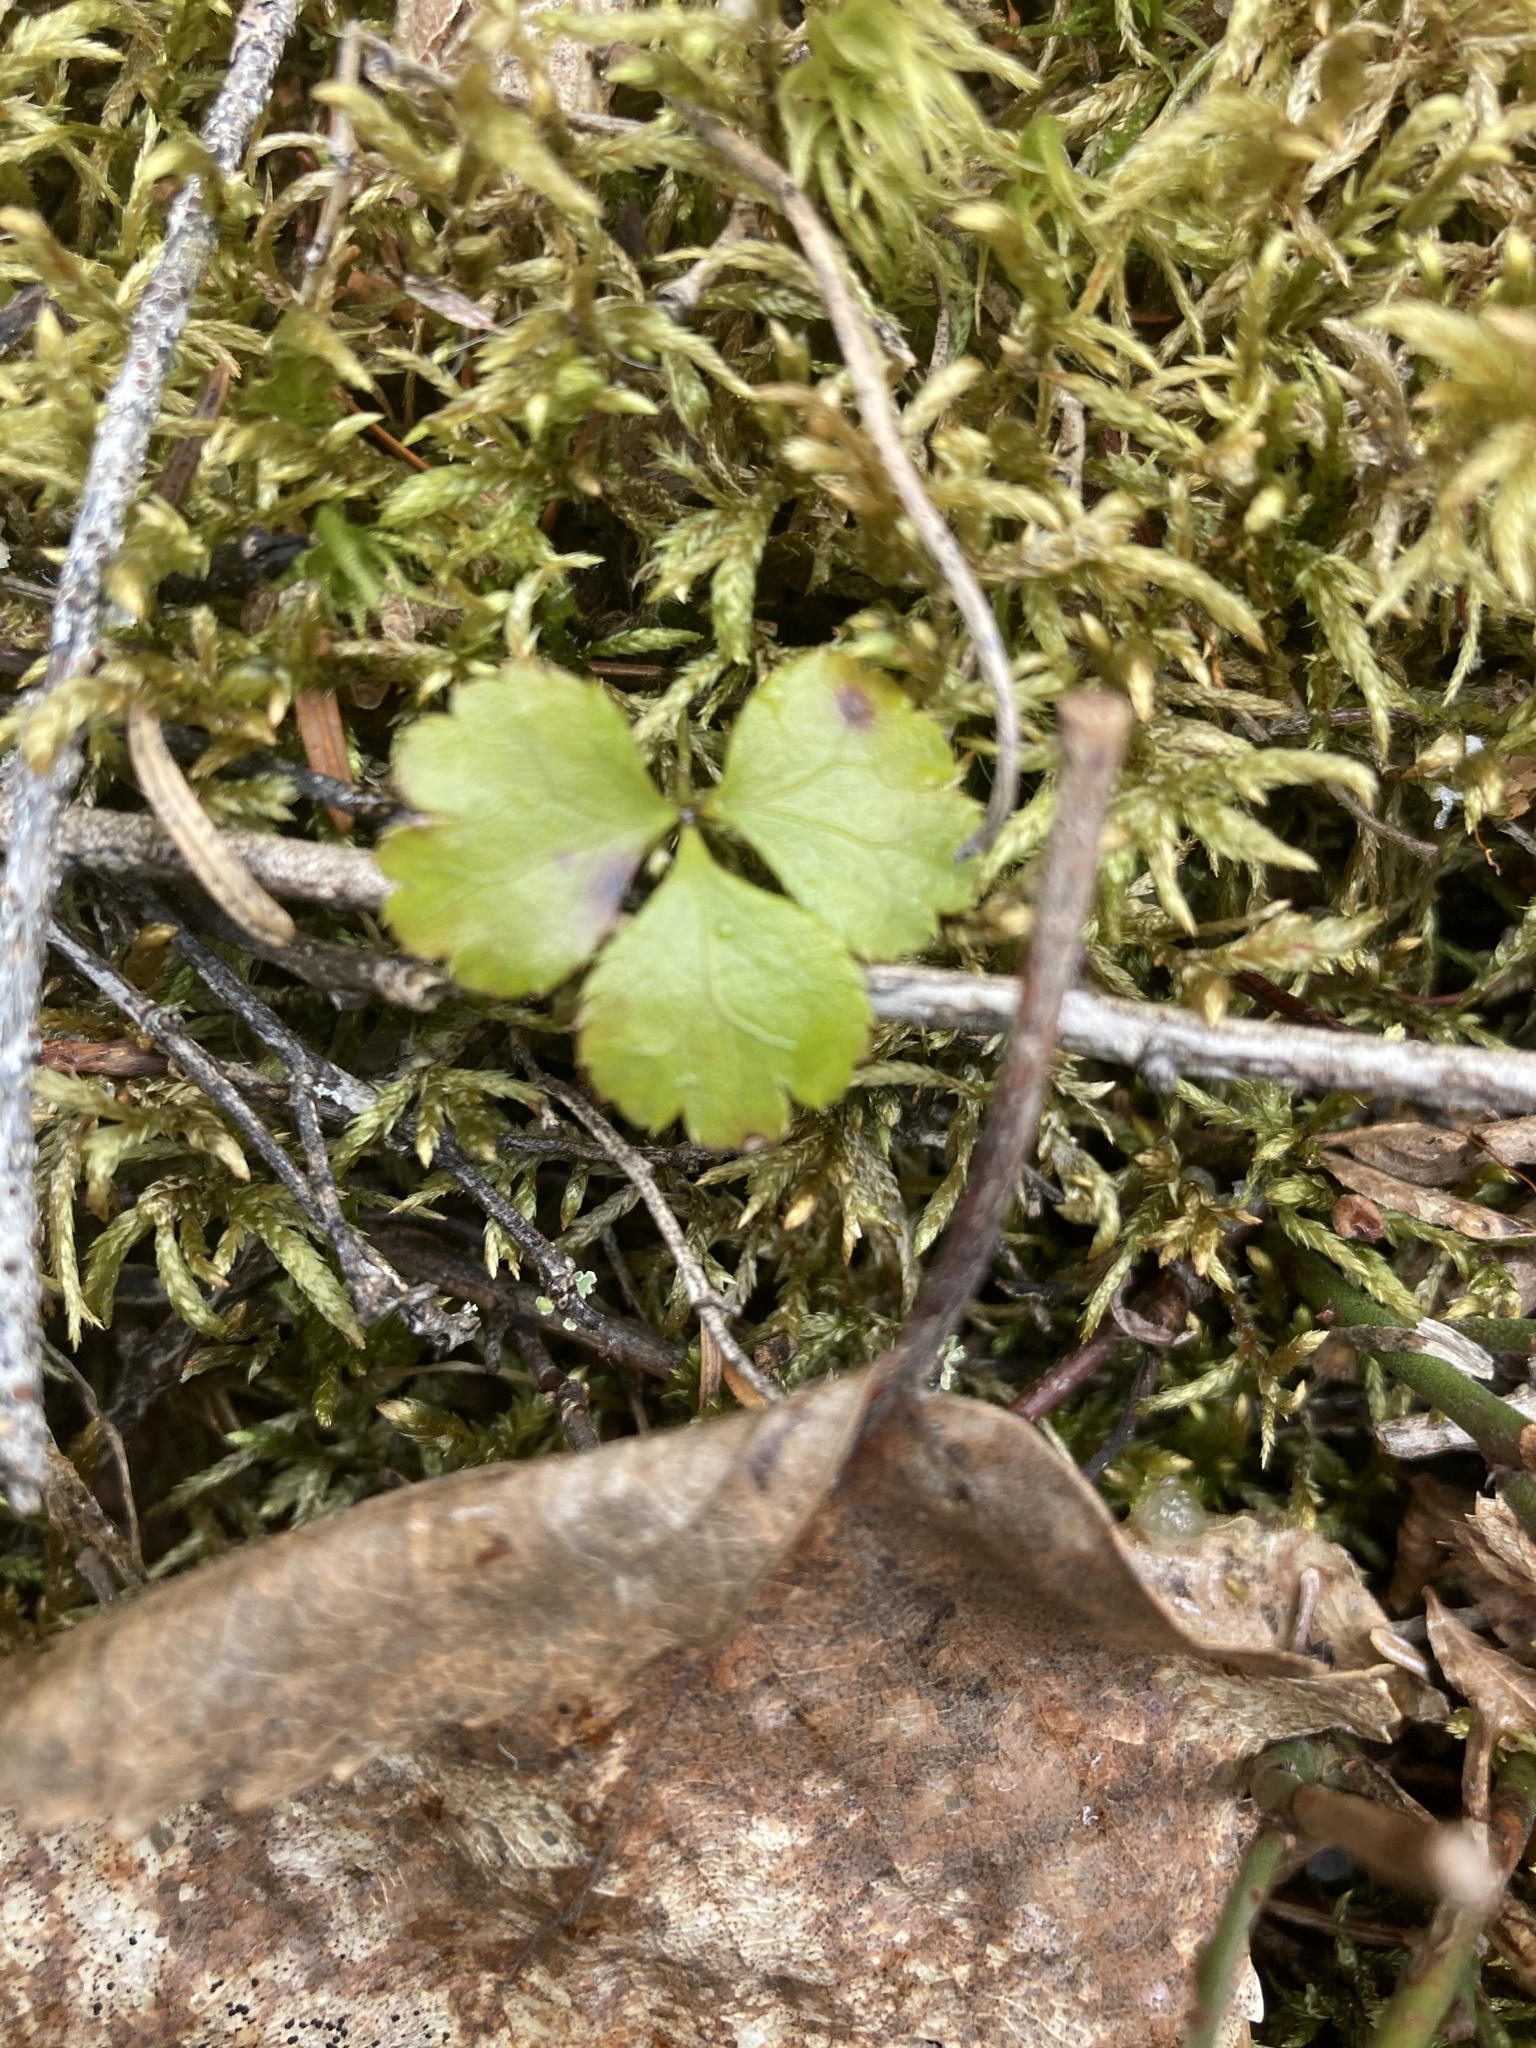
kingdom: Plantae
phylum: Tracheophyta
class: Magnoliopsida
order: Ranunculales
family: Ranunculaceae
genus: Coptis
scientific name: Coptis trifolia
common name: Canker-root
